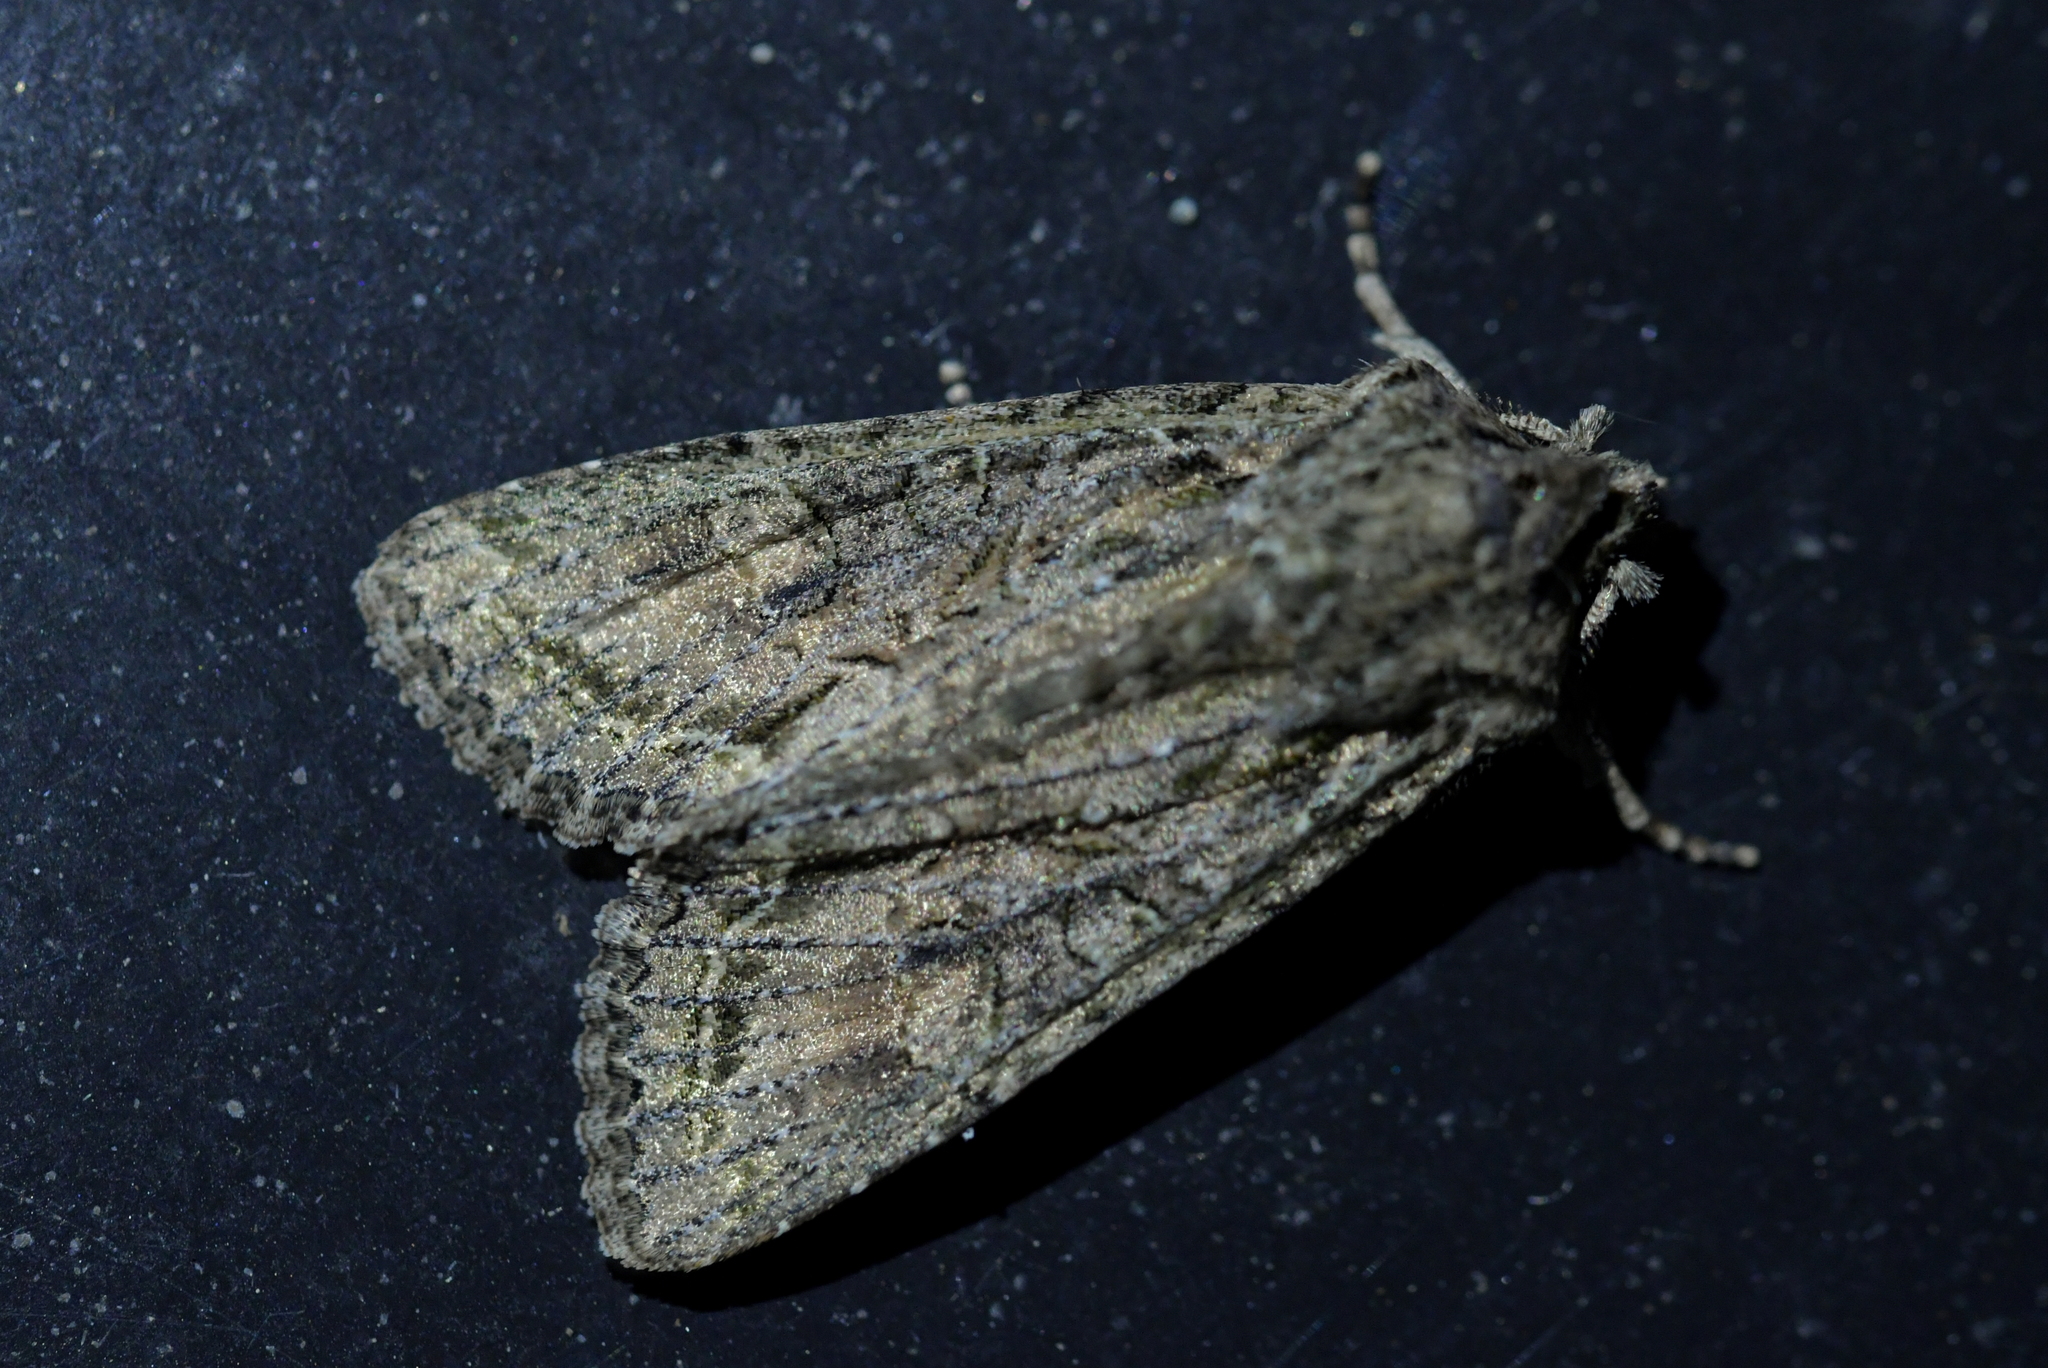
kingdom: Animalia
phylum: Arthropoda
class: Insecta
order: Lepidoptera
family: Noctuidae
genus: Ichneutica
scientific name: Ichneutica mutans
